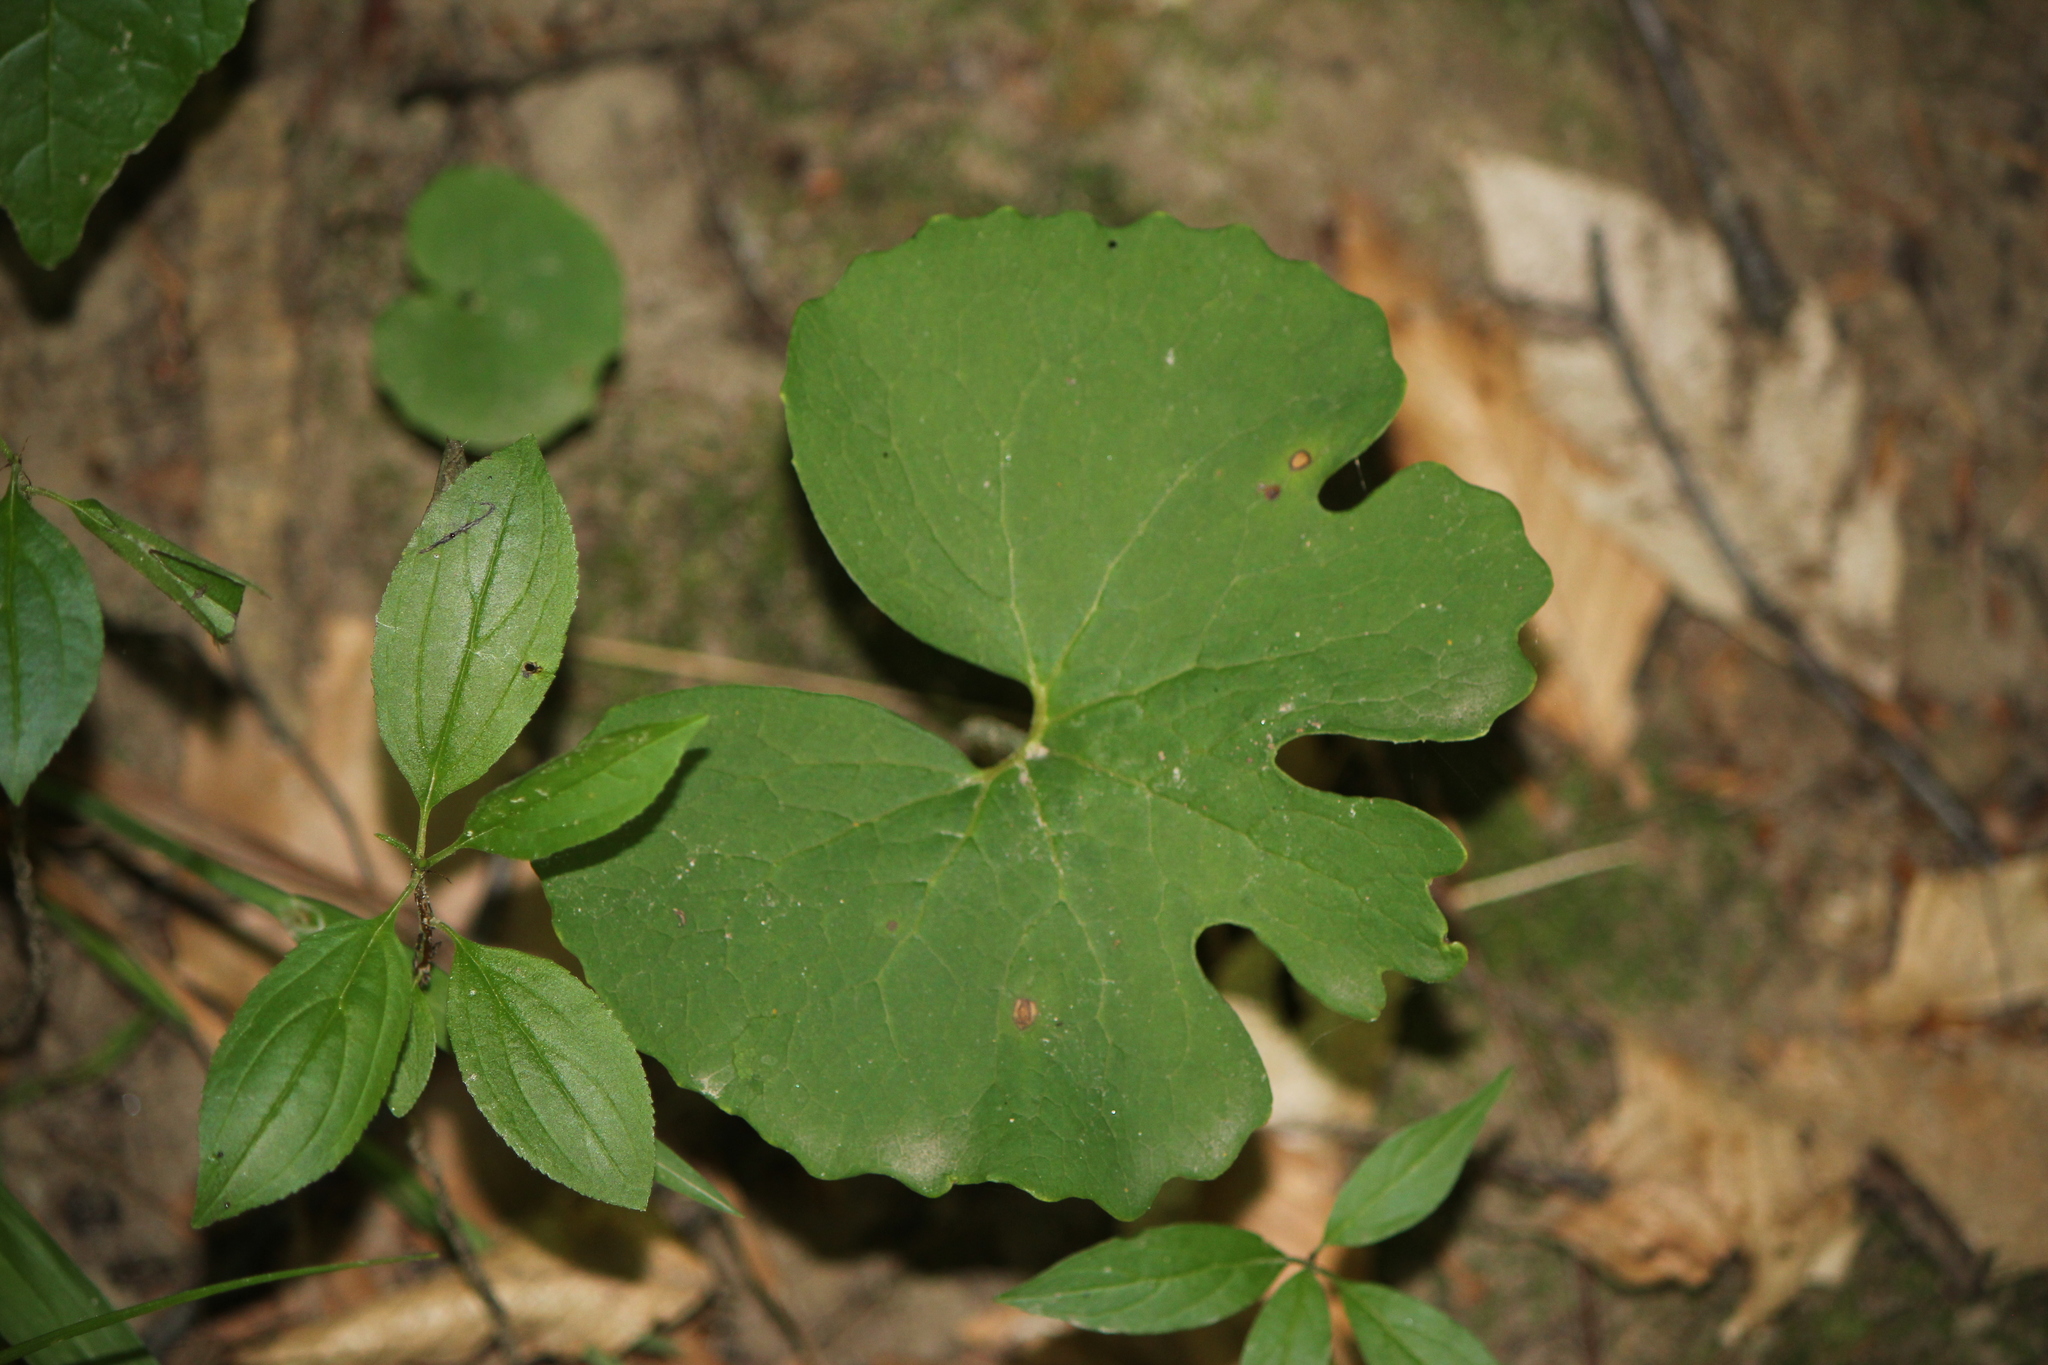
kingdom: Plantae
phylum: Tracheophyta
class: Magnoliopsida
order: Ranunculales
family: Papaveraceae
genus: Sanguinaria
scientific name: Sanguinaria canadensis
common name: Bloodroot
